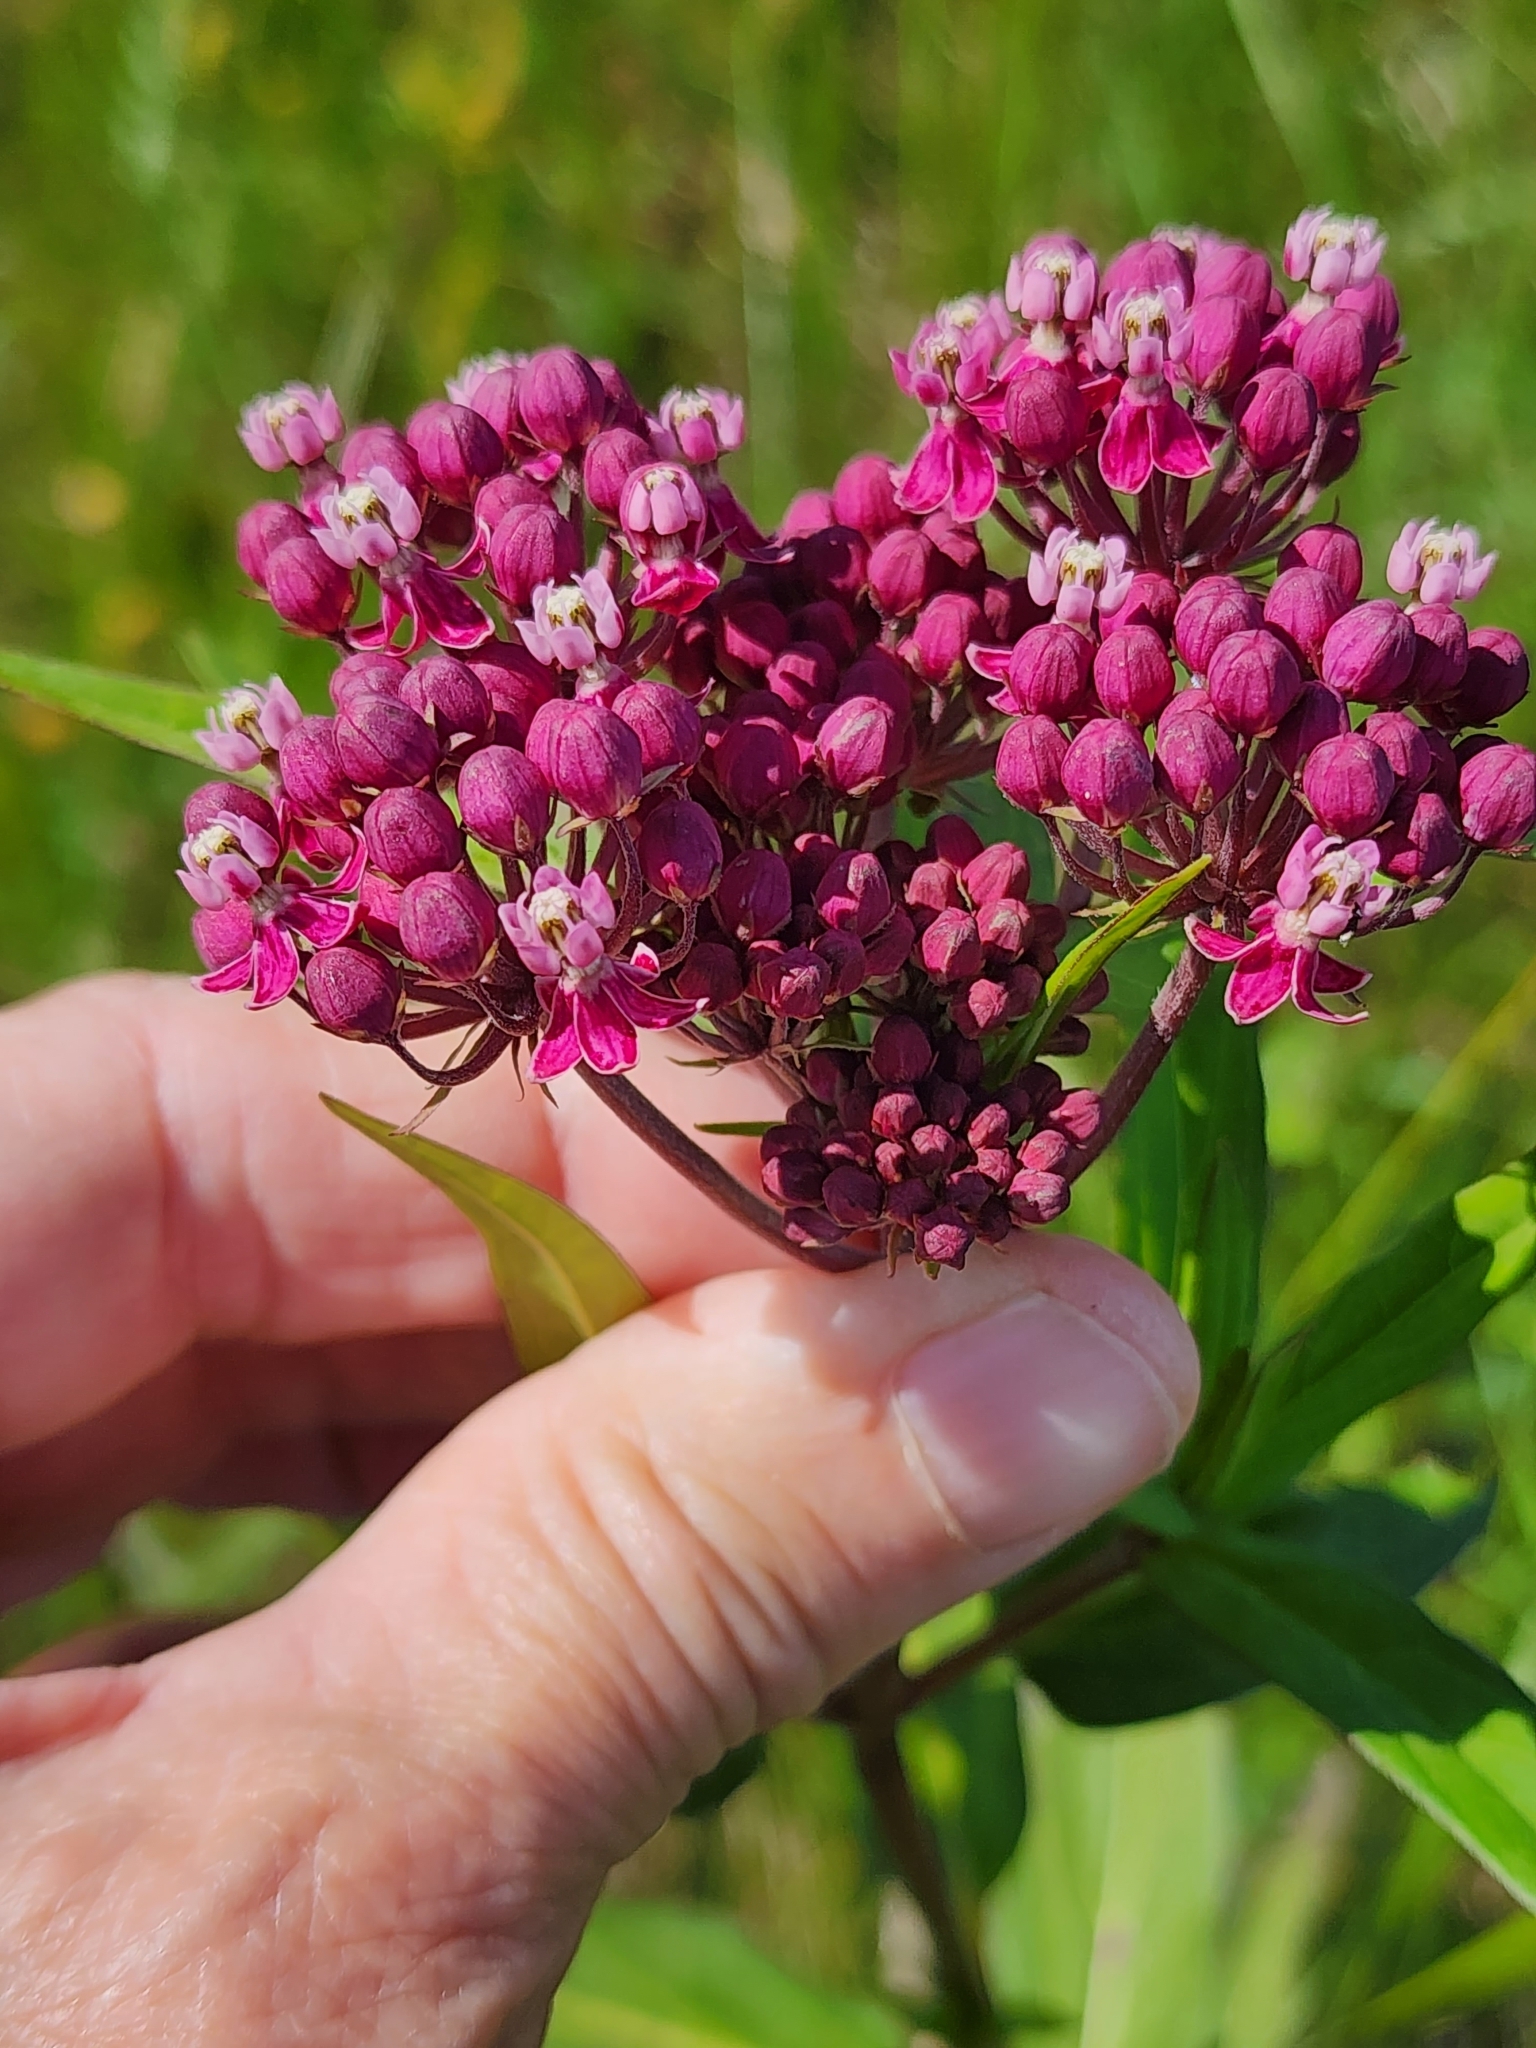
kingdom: Plantae
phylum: Tracheophyta
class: Magnoliopsida
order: Gentianales
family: Apocynaceae
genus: Asclepias
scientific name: Asclepias incarnata
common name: Swamp milkweed
